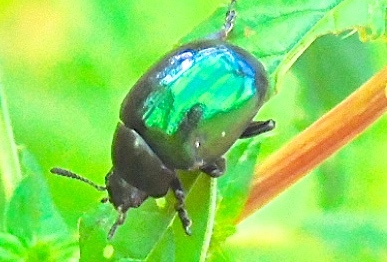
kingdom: Animalia
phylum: Arthropoda
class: Insecta
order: Coleoptera
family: Chrysomelidae
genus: Leptinotarsa
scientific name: Leptinotarsa haldemani
